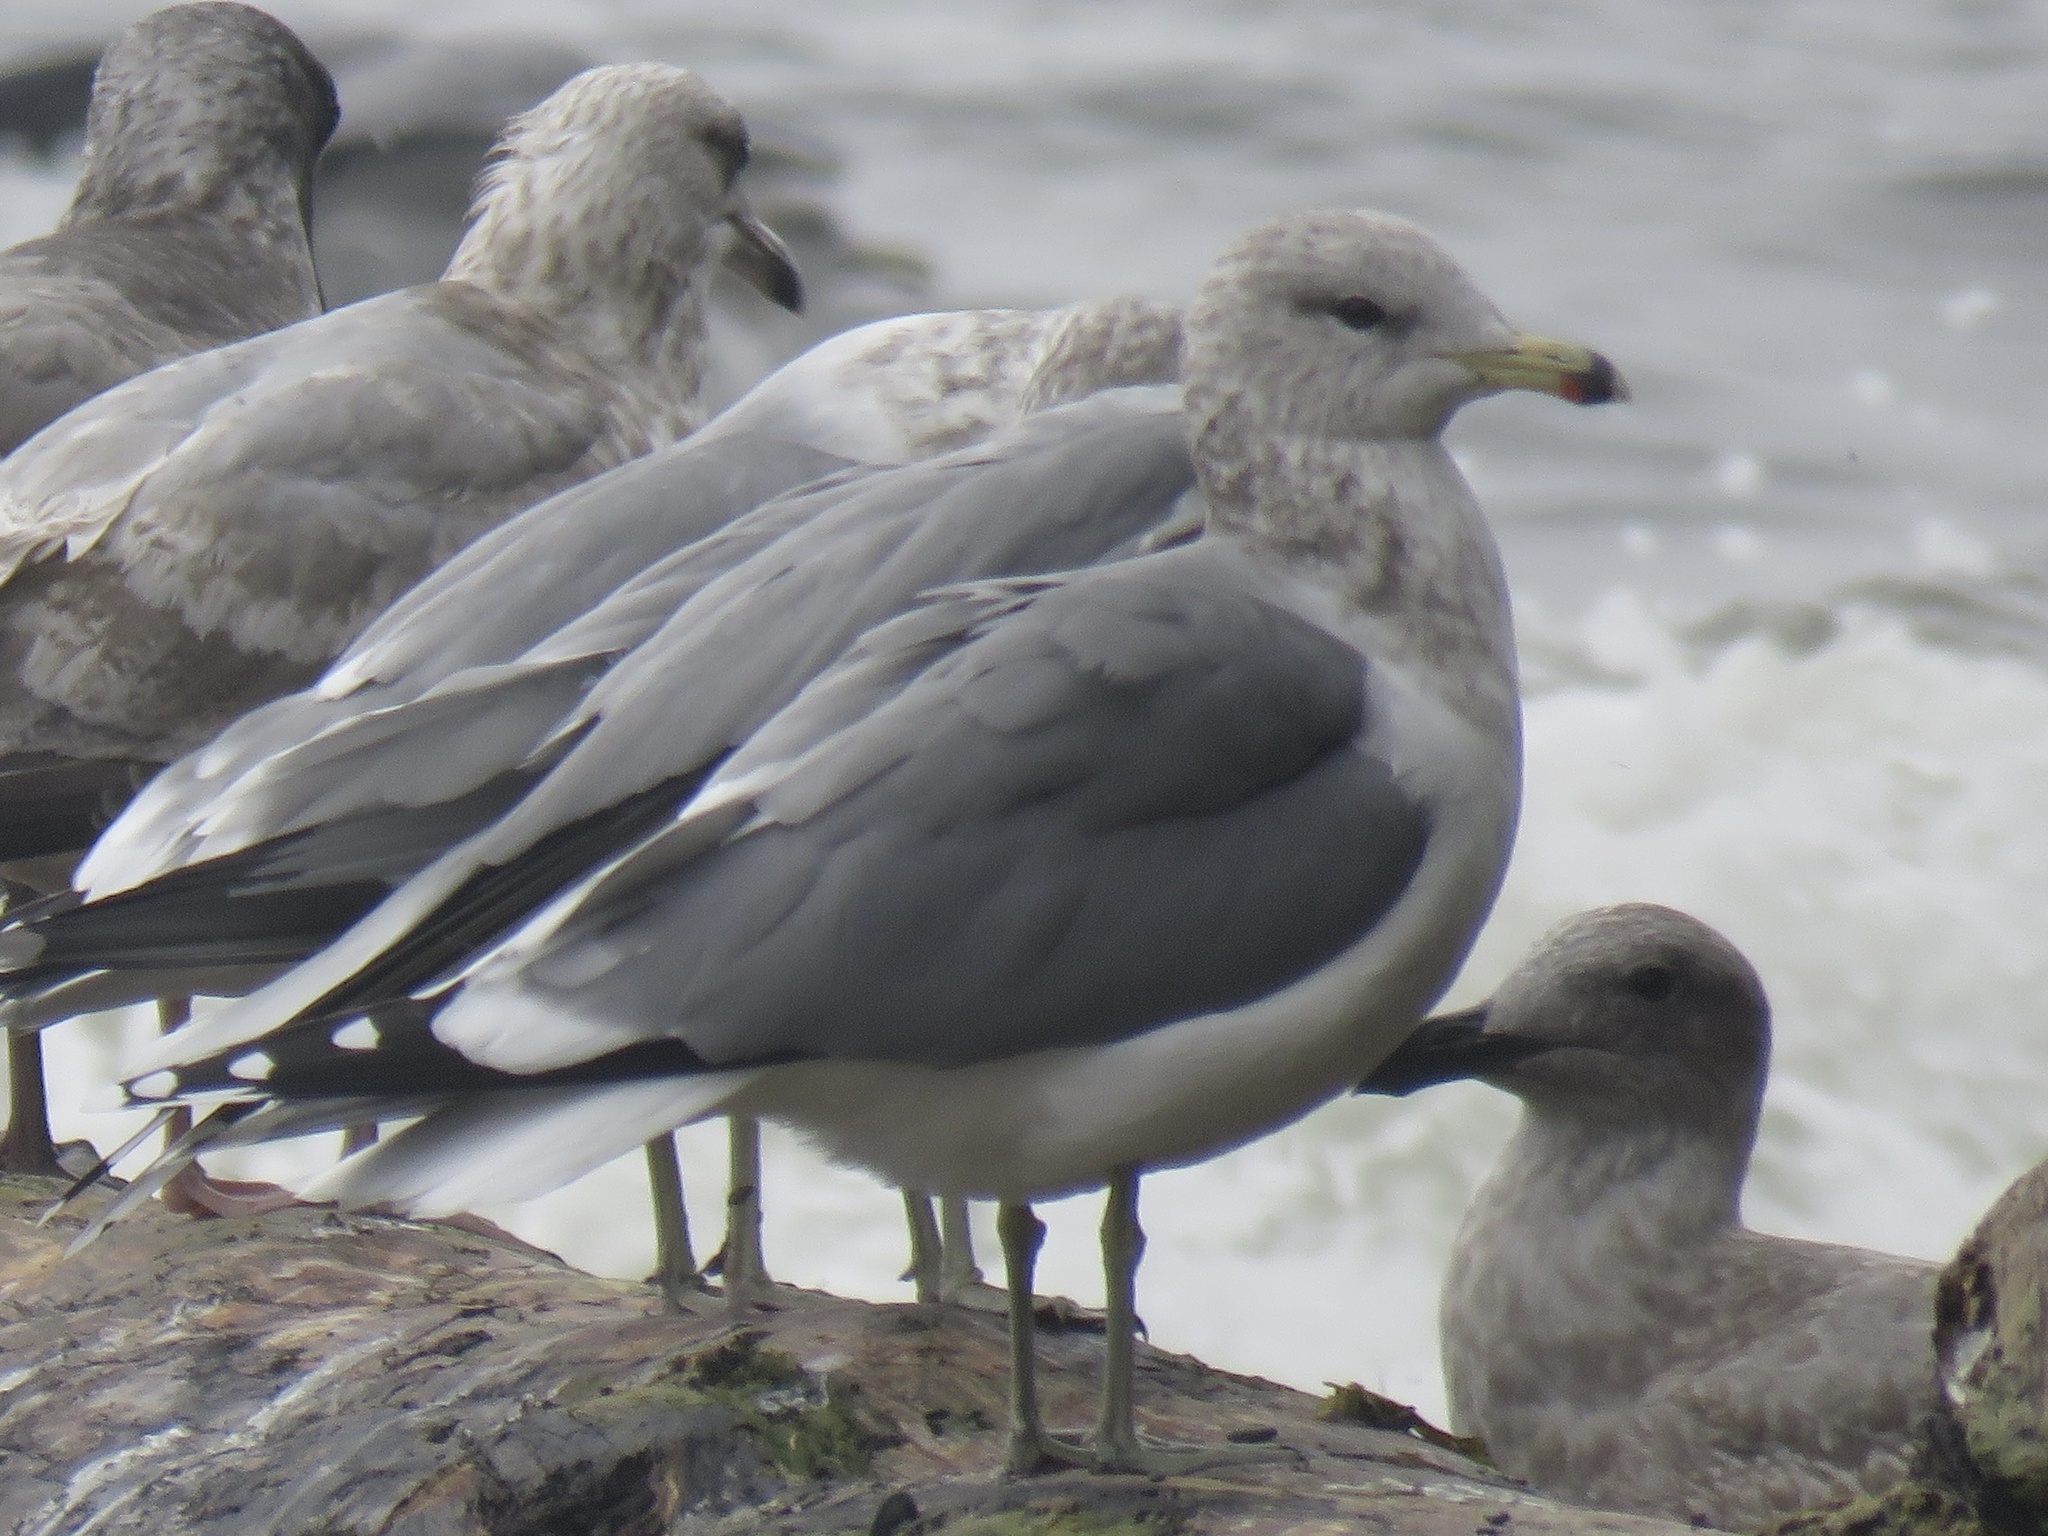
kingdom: Animalia
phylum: Chordata
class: Aves
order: Charadriiformes
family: Laridae
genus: Larus
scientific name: Larus californicus
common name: California gull
